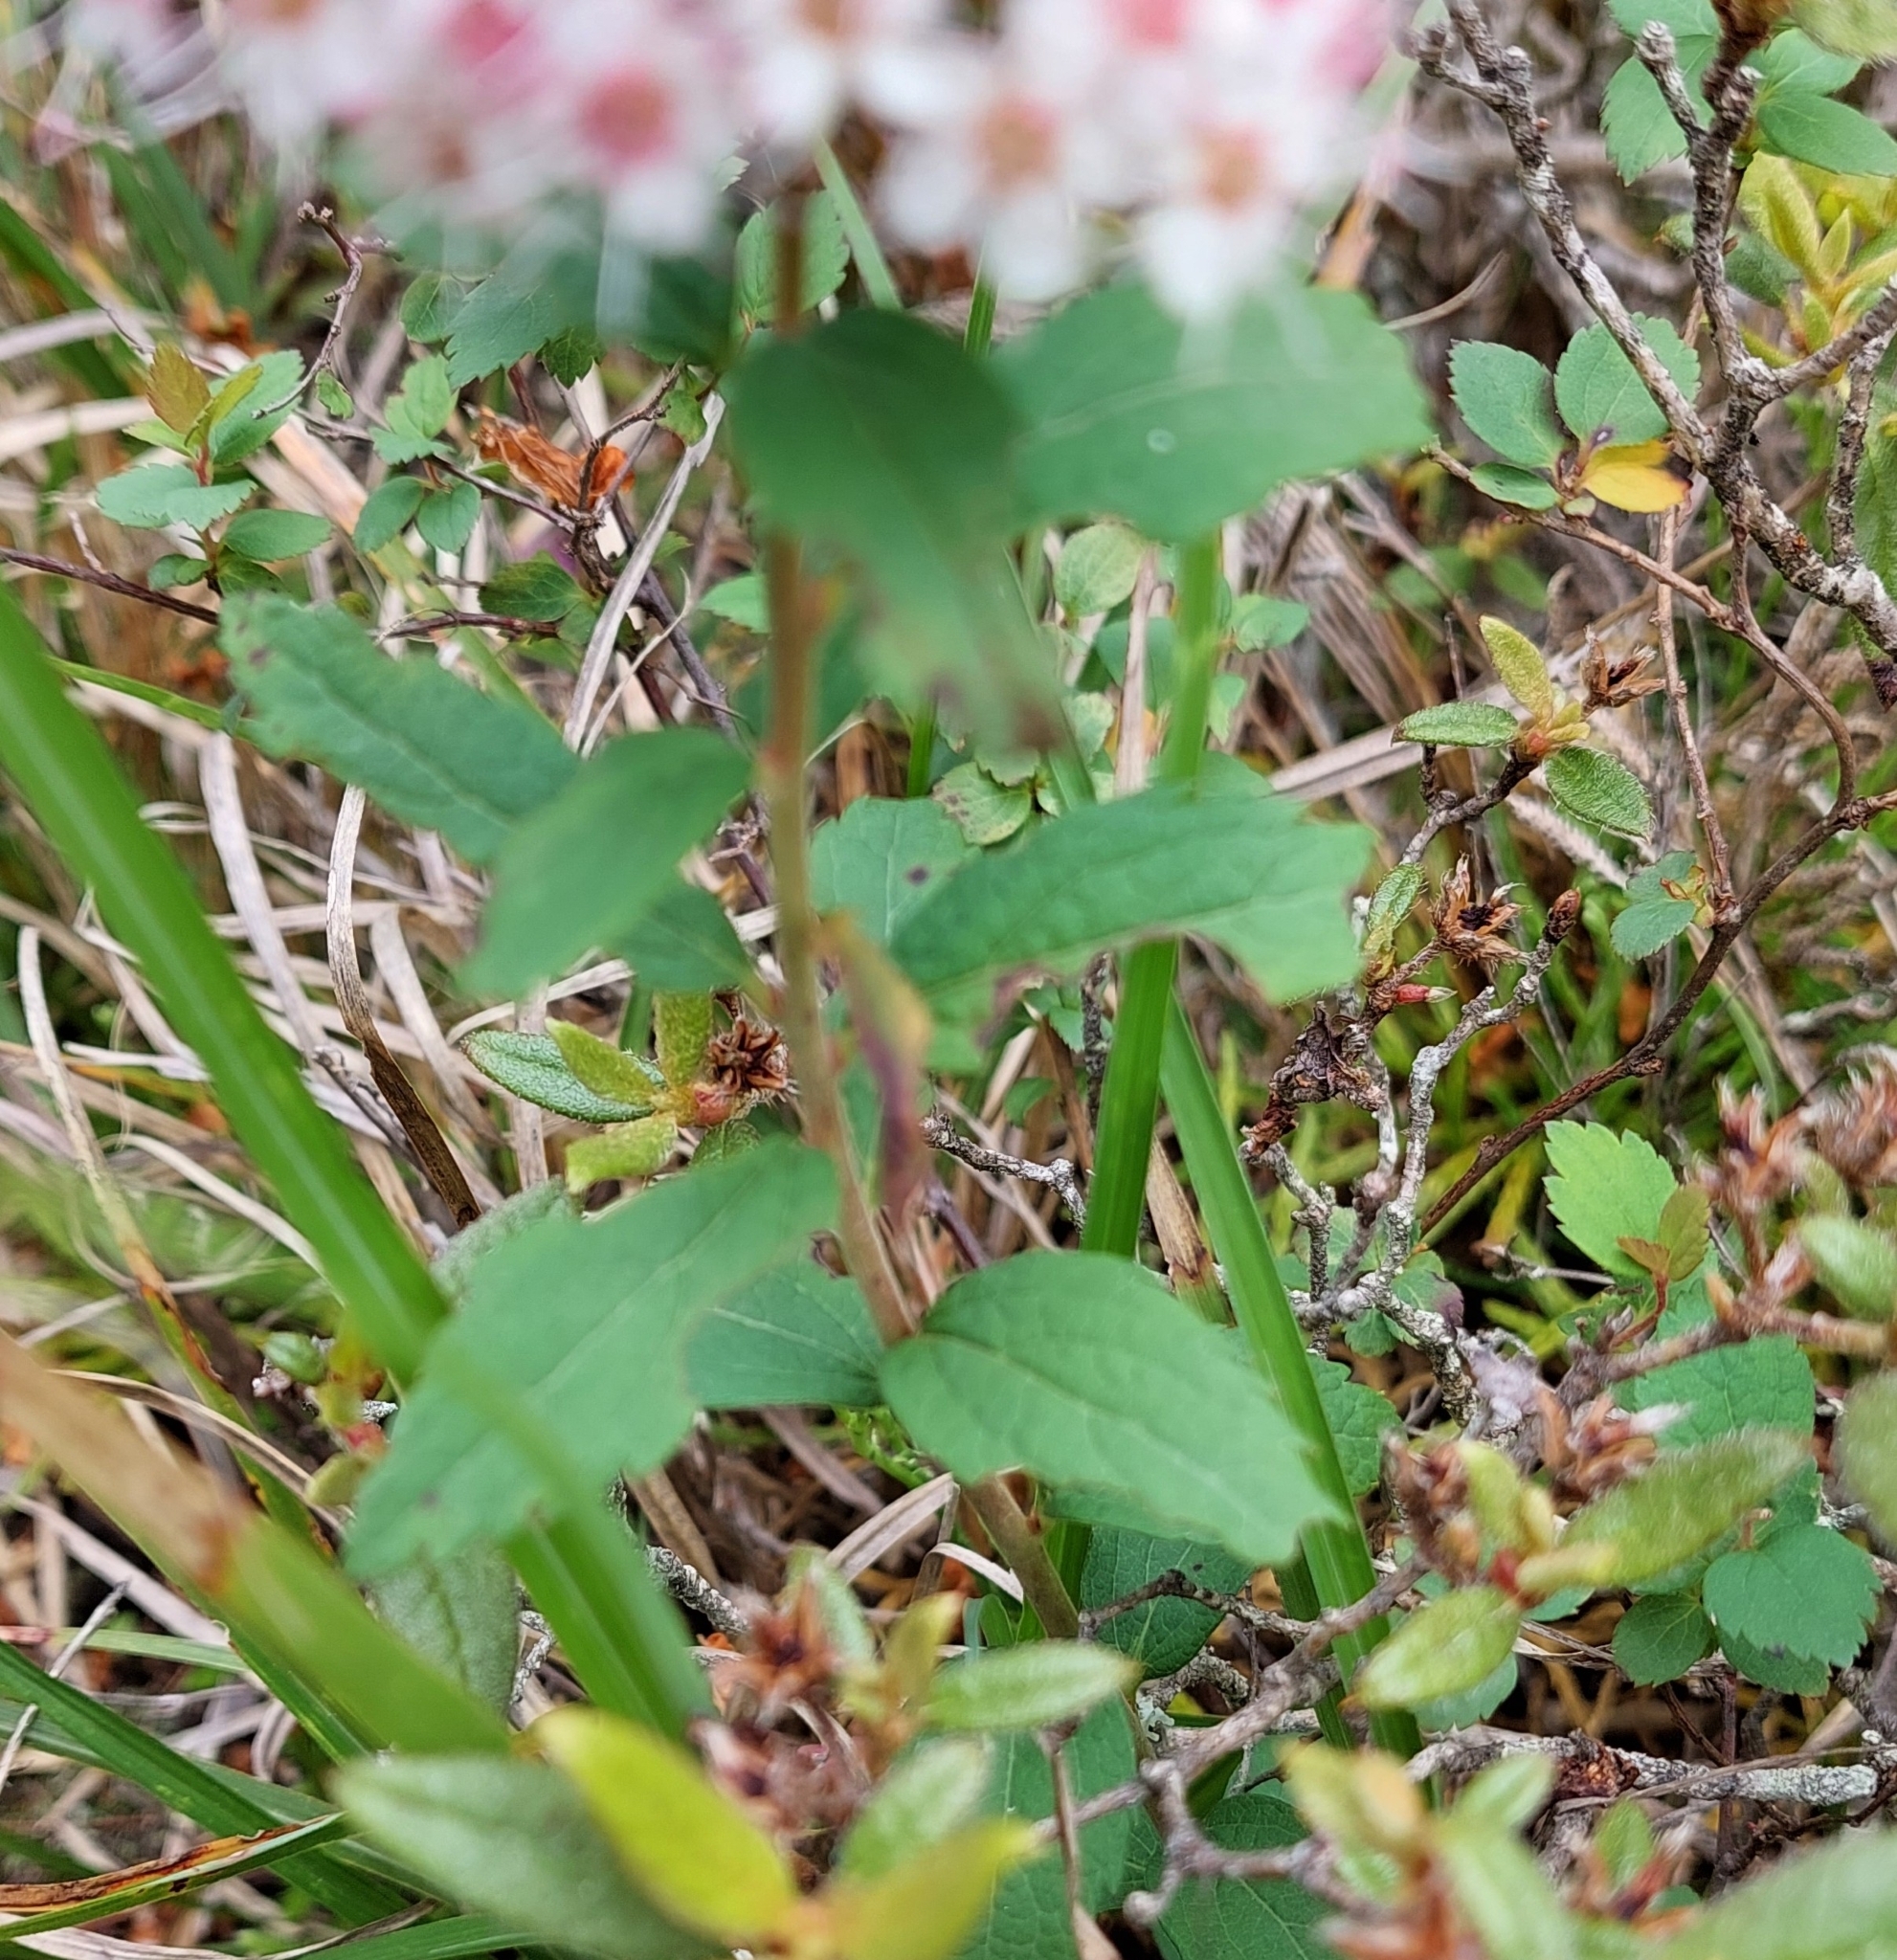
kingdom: Plantae
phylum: Tracheophyta
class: Magnoliopsida
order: Rosales
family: Rosaceae
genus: Spiraea
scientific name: Spiraea morrisonicola
